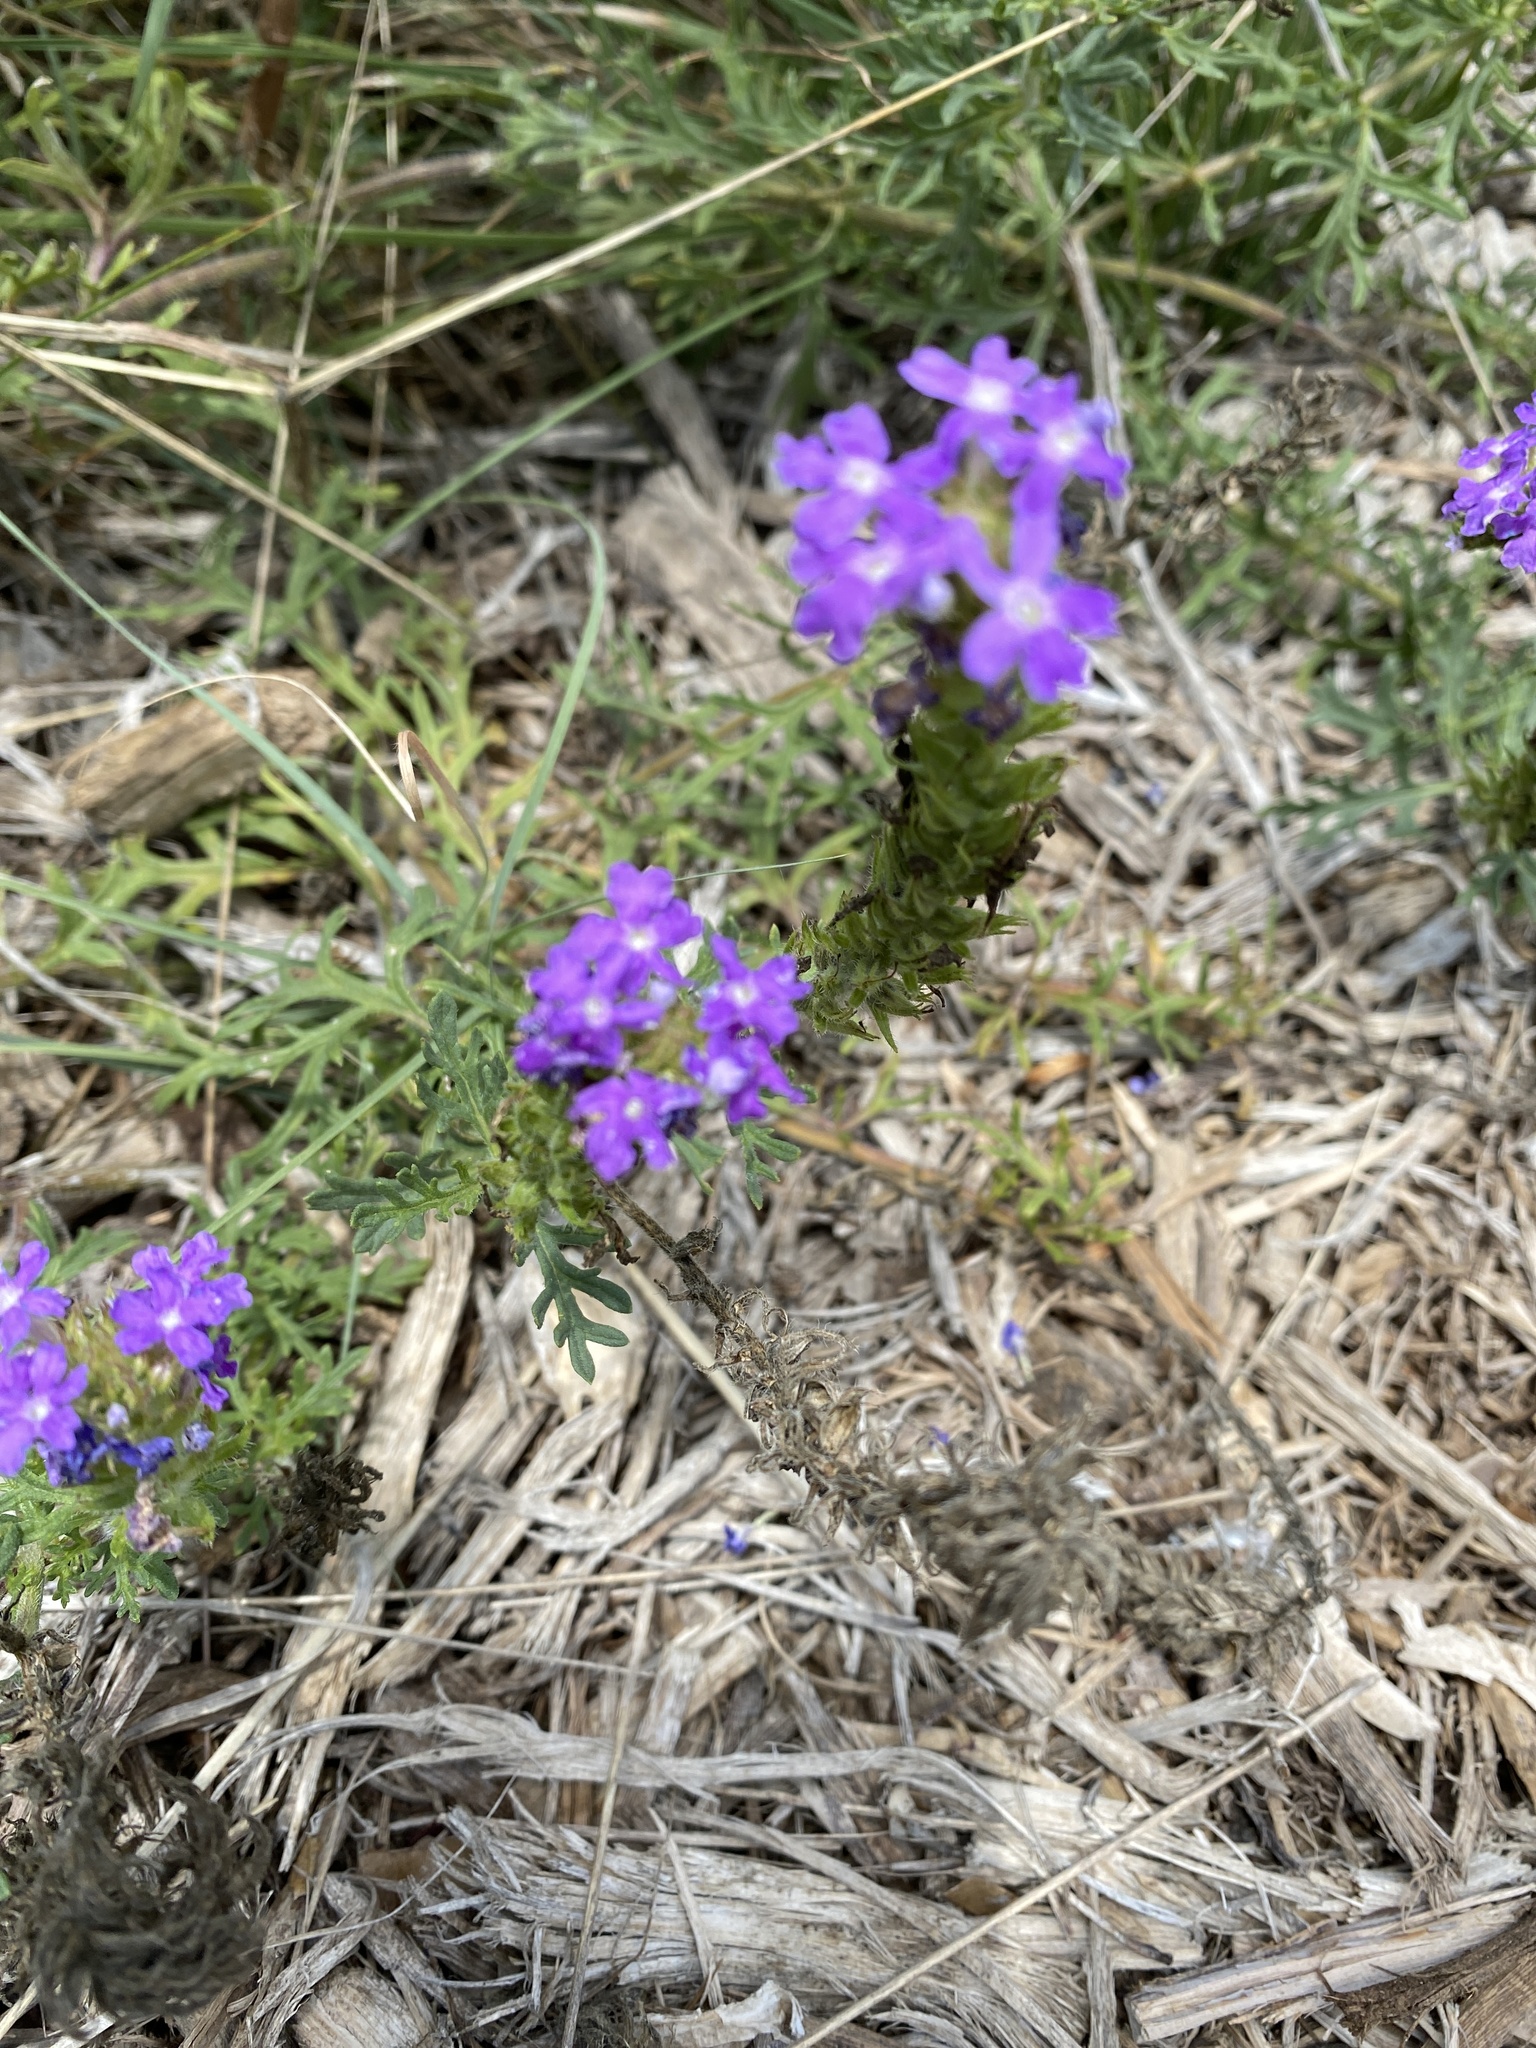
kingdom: Plantae
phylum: Tracheophyta
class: Magnoliopsida
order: Lamiales
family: Verbenaceae
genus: Verbena
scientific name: Verbena bipinnatifida
